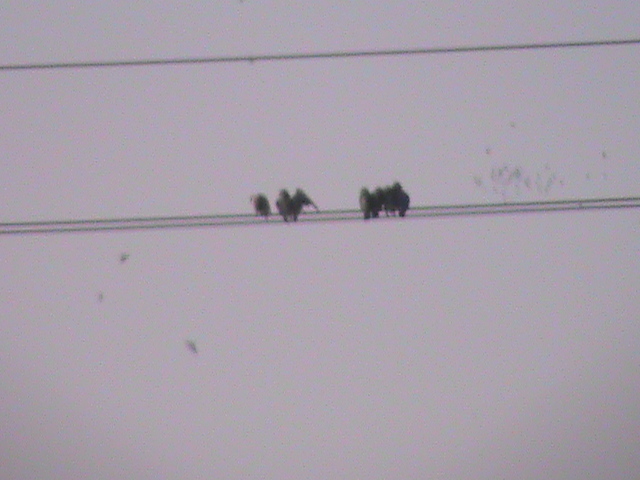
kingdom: Animalia
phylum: Chordata
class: Aves
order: Passeriformes
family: Artamidae
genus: Artamus
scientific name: Artamus fuscus
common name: Ashy woodswallow
